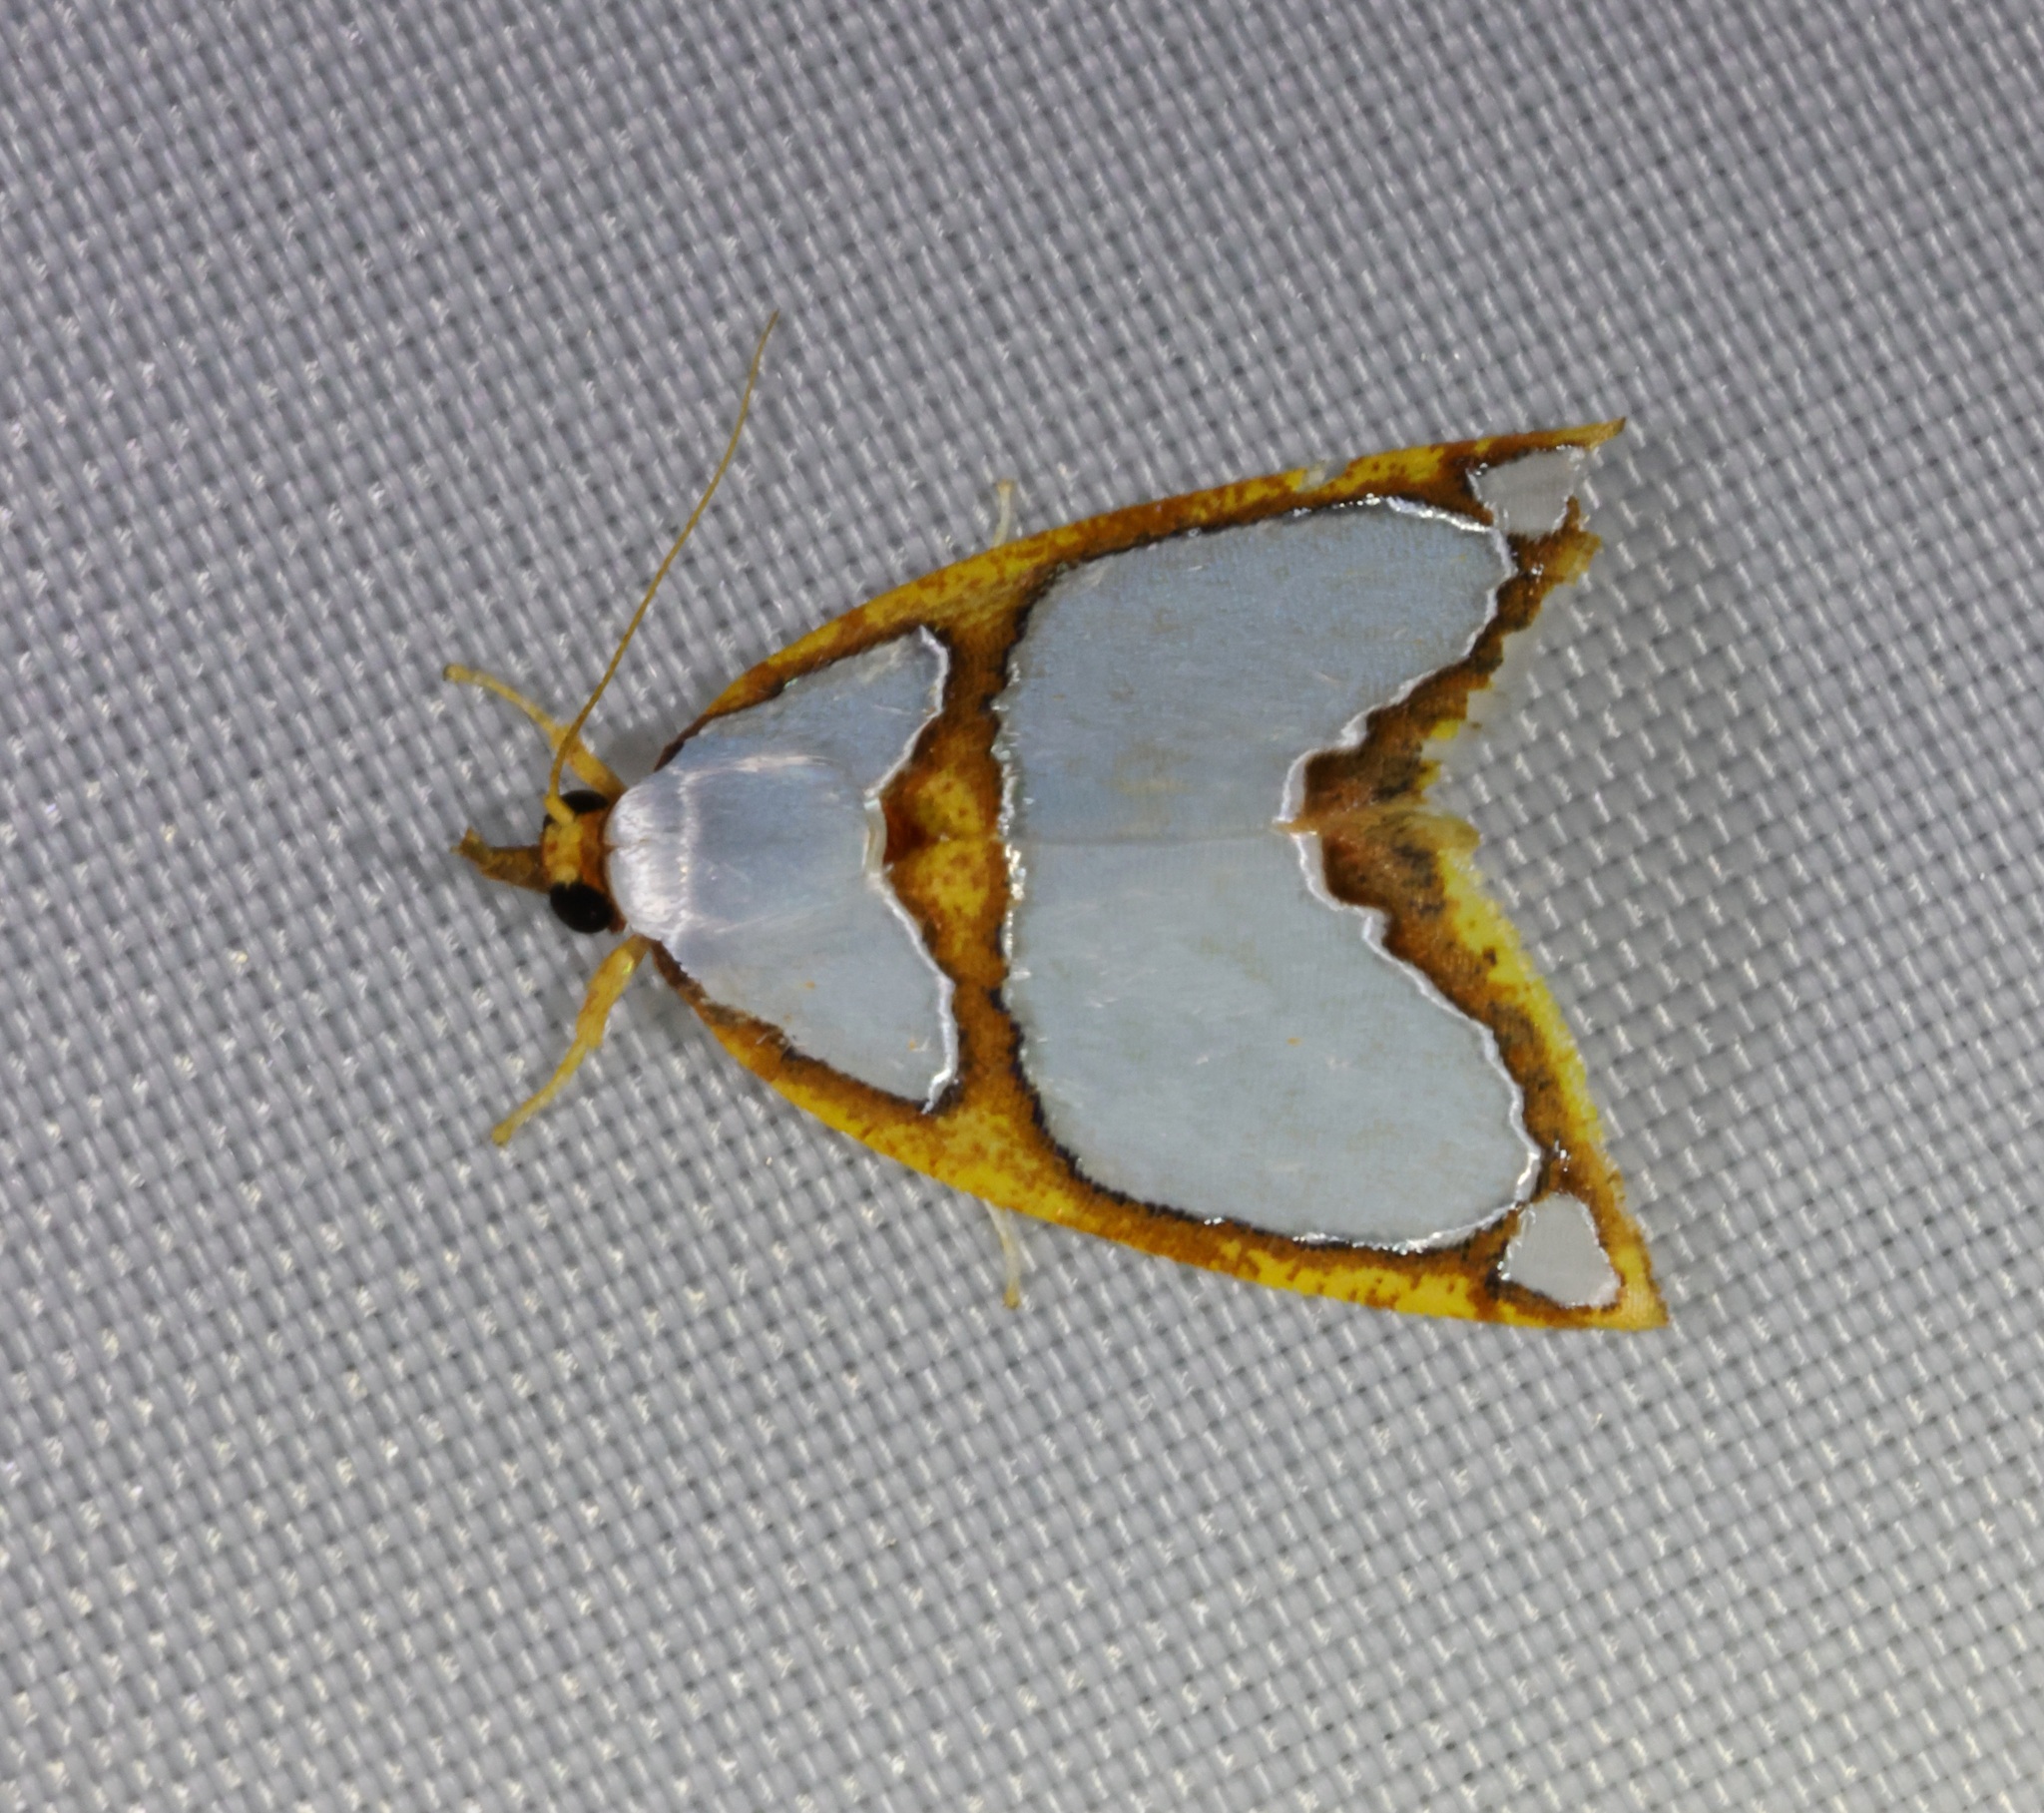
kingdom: Animalia
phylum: Arthropoda
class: Insecta
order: Lepidoptera
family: Nolidae
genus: Titulcia
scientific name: Titulcia confictella
